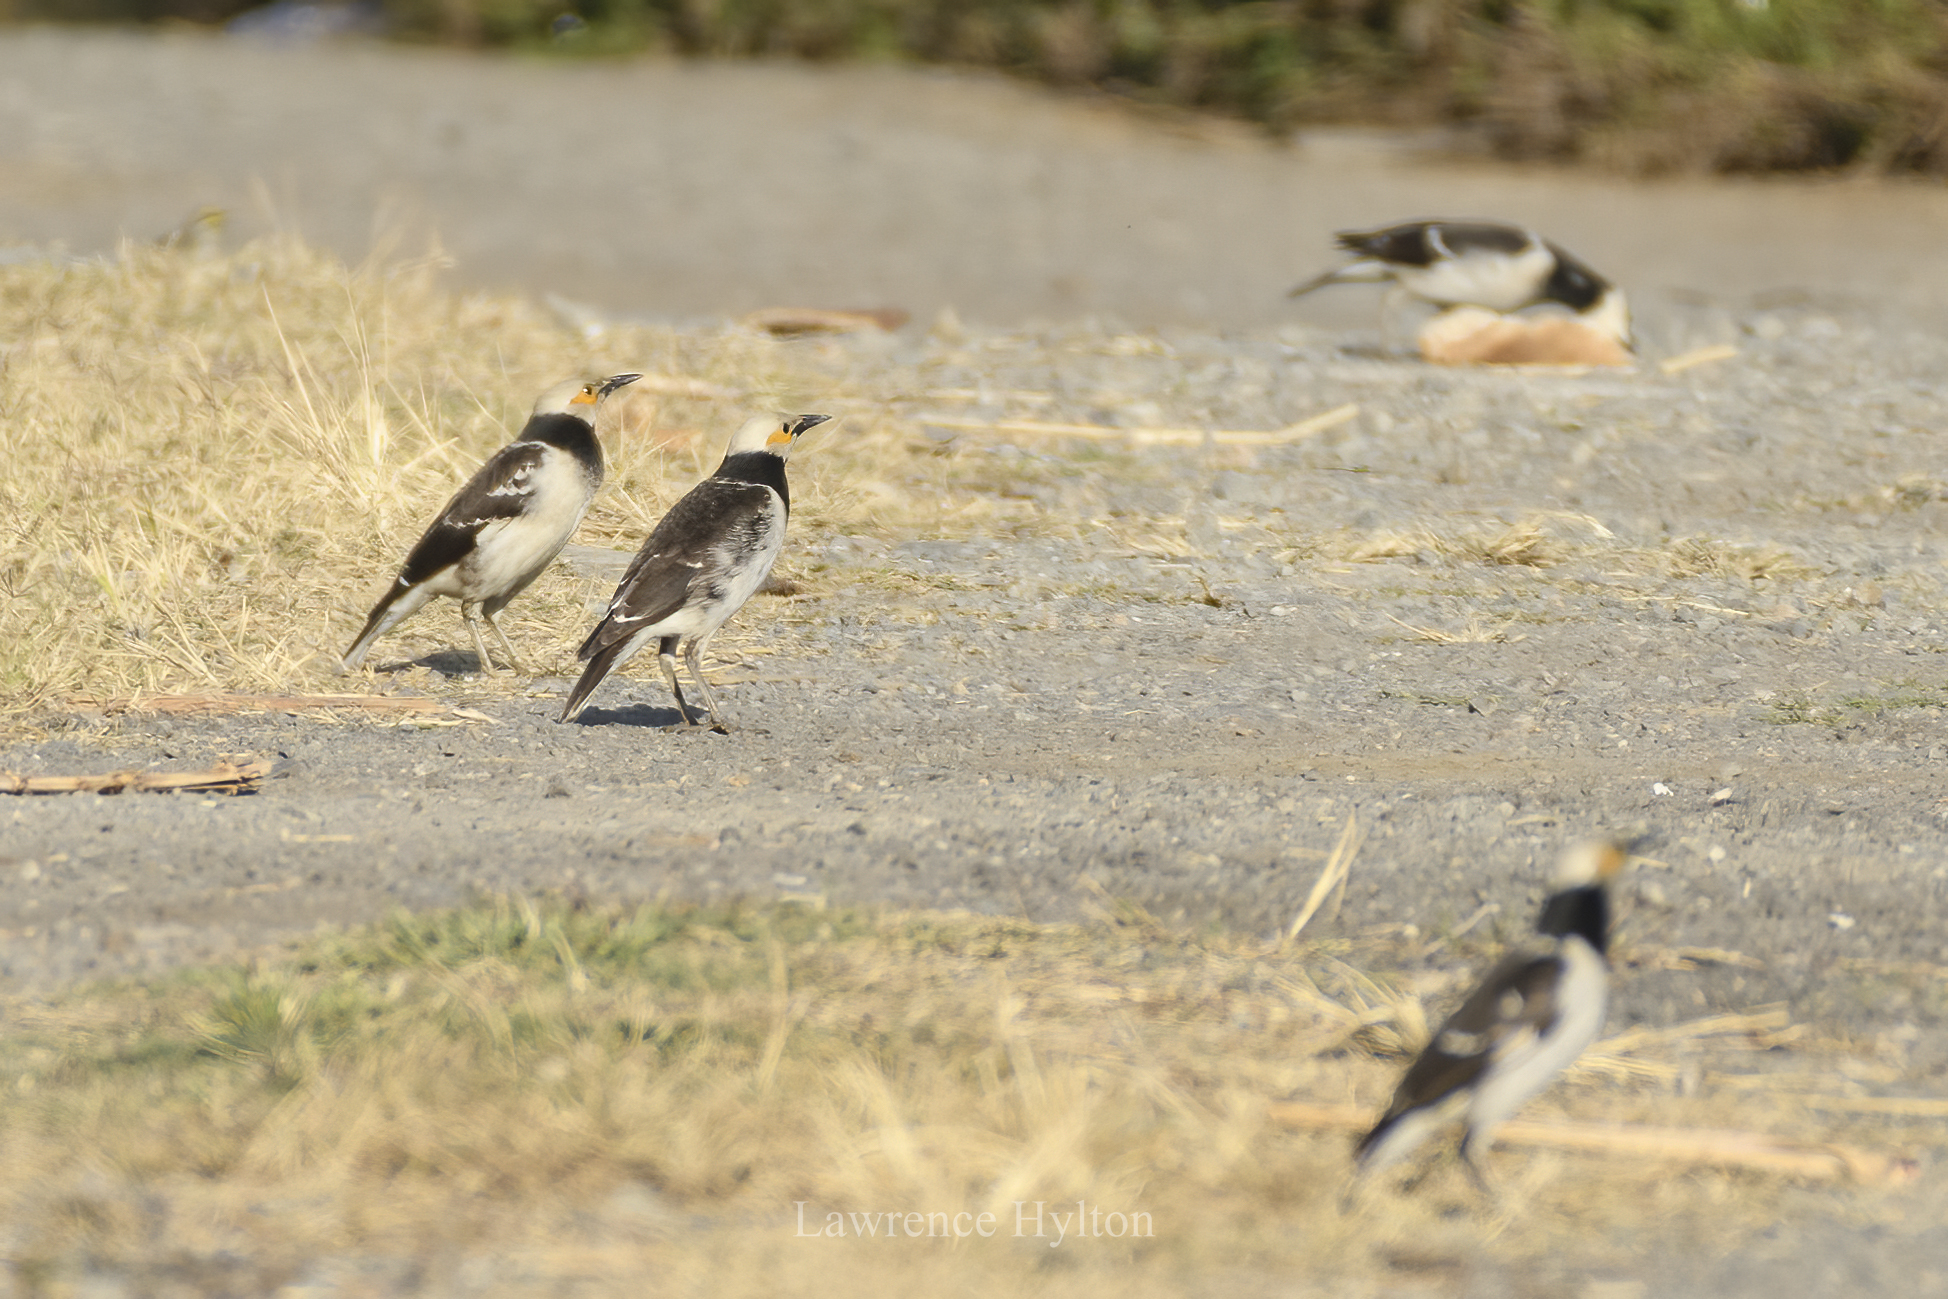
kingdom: Animalia
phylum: Chordata
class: Aves
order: Passeriformes
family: Sturnidae
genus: Gracupica
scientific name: Gracupica nigricollis
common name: Black-collared starling
